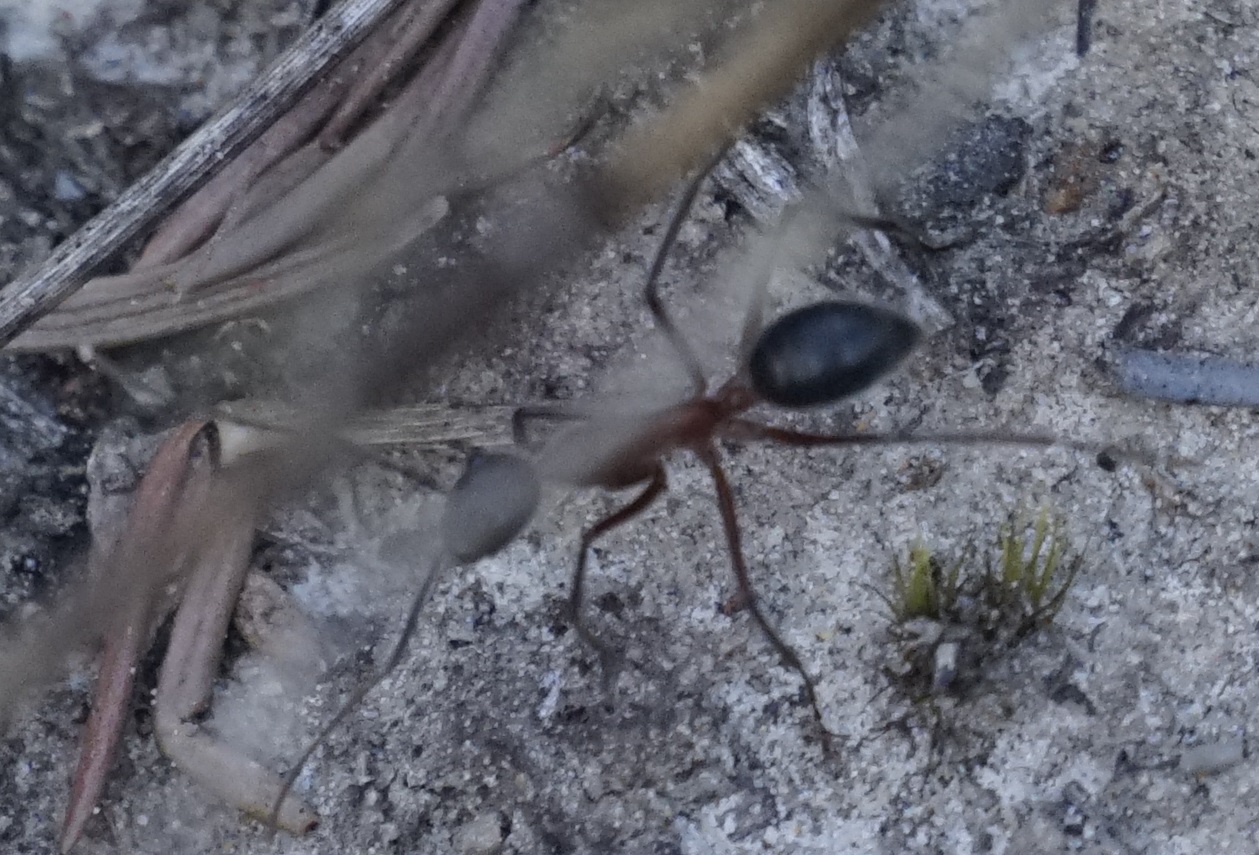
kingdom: Animalia
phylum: Arthropoda
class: Insecta
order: Hymenoptera
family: Formicidae
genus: Camponotus
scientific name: Camponotus intrepidus
